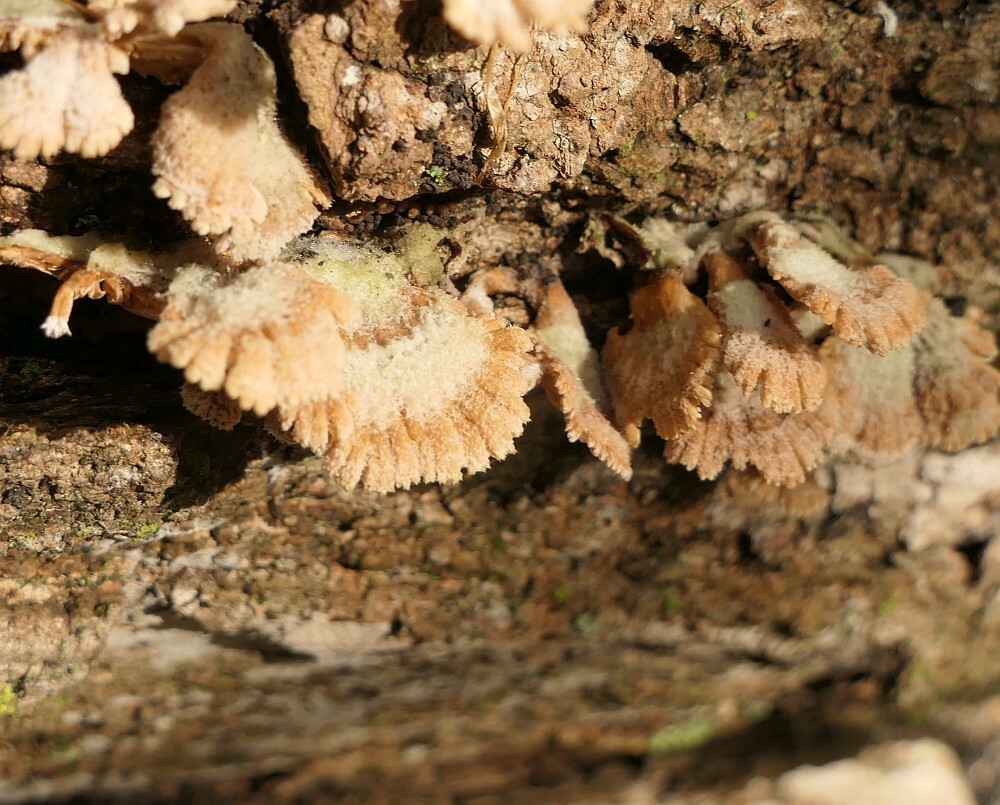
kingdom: Fungi
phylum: Basidiomycota
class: Agaricomycetes
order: Agaricales
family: Schizophyllaceae
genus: Schizophyllum
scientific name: Schizophyllum commune
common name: Common porecrust
